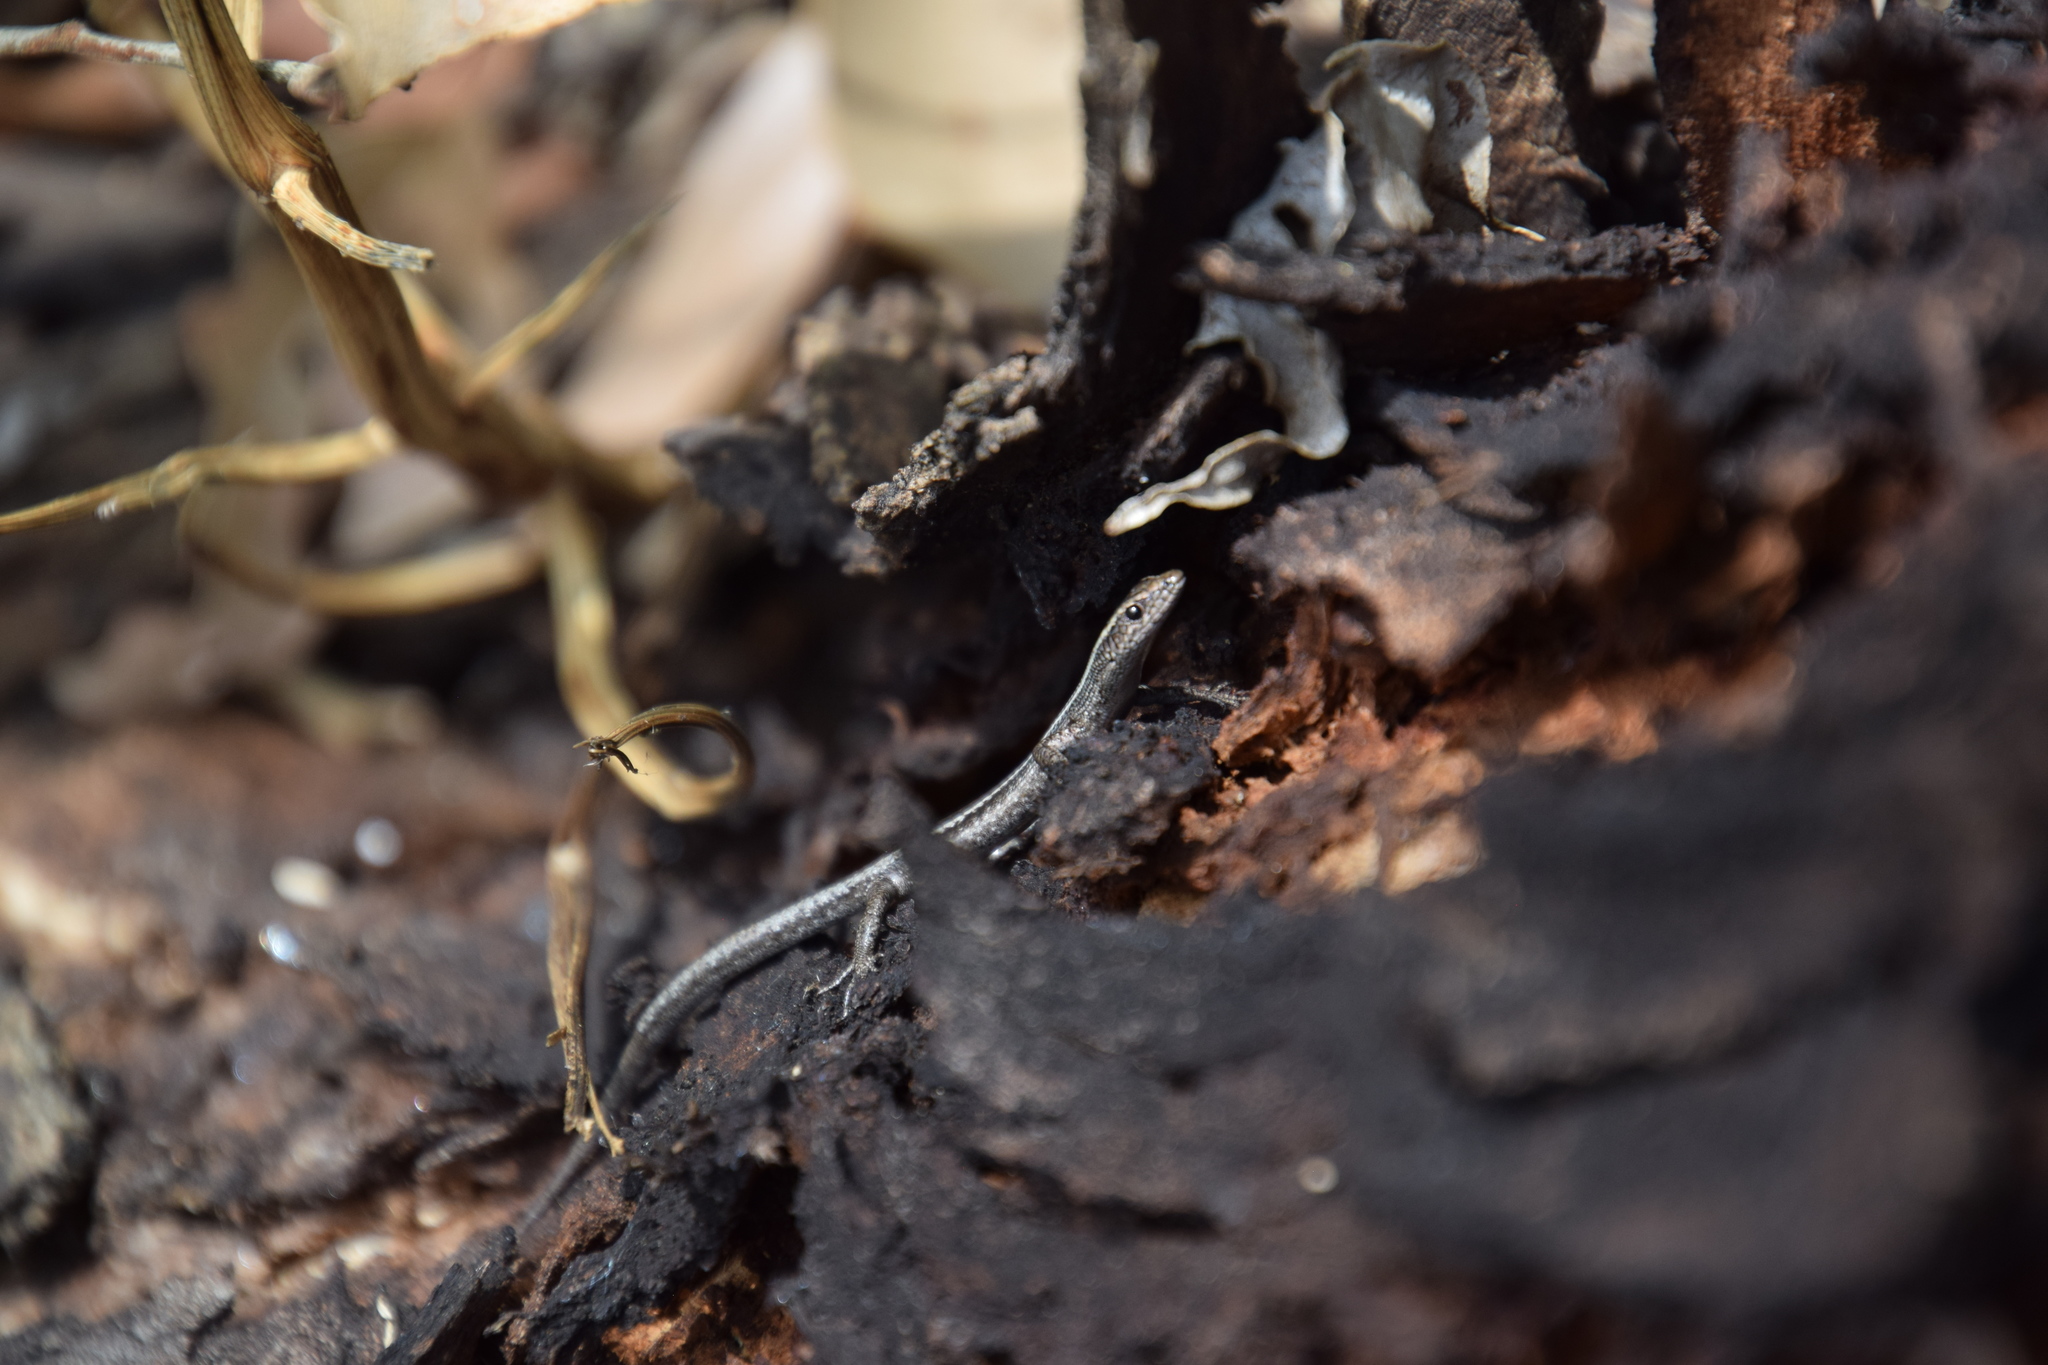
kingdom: Animalia
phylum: Chordata
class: Squamata
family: Scincidae
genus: Cryptoblepharus
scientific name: Cryptoblepharus pulcher
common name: Elegant snake-eyed skink
